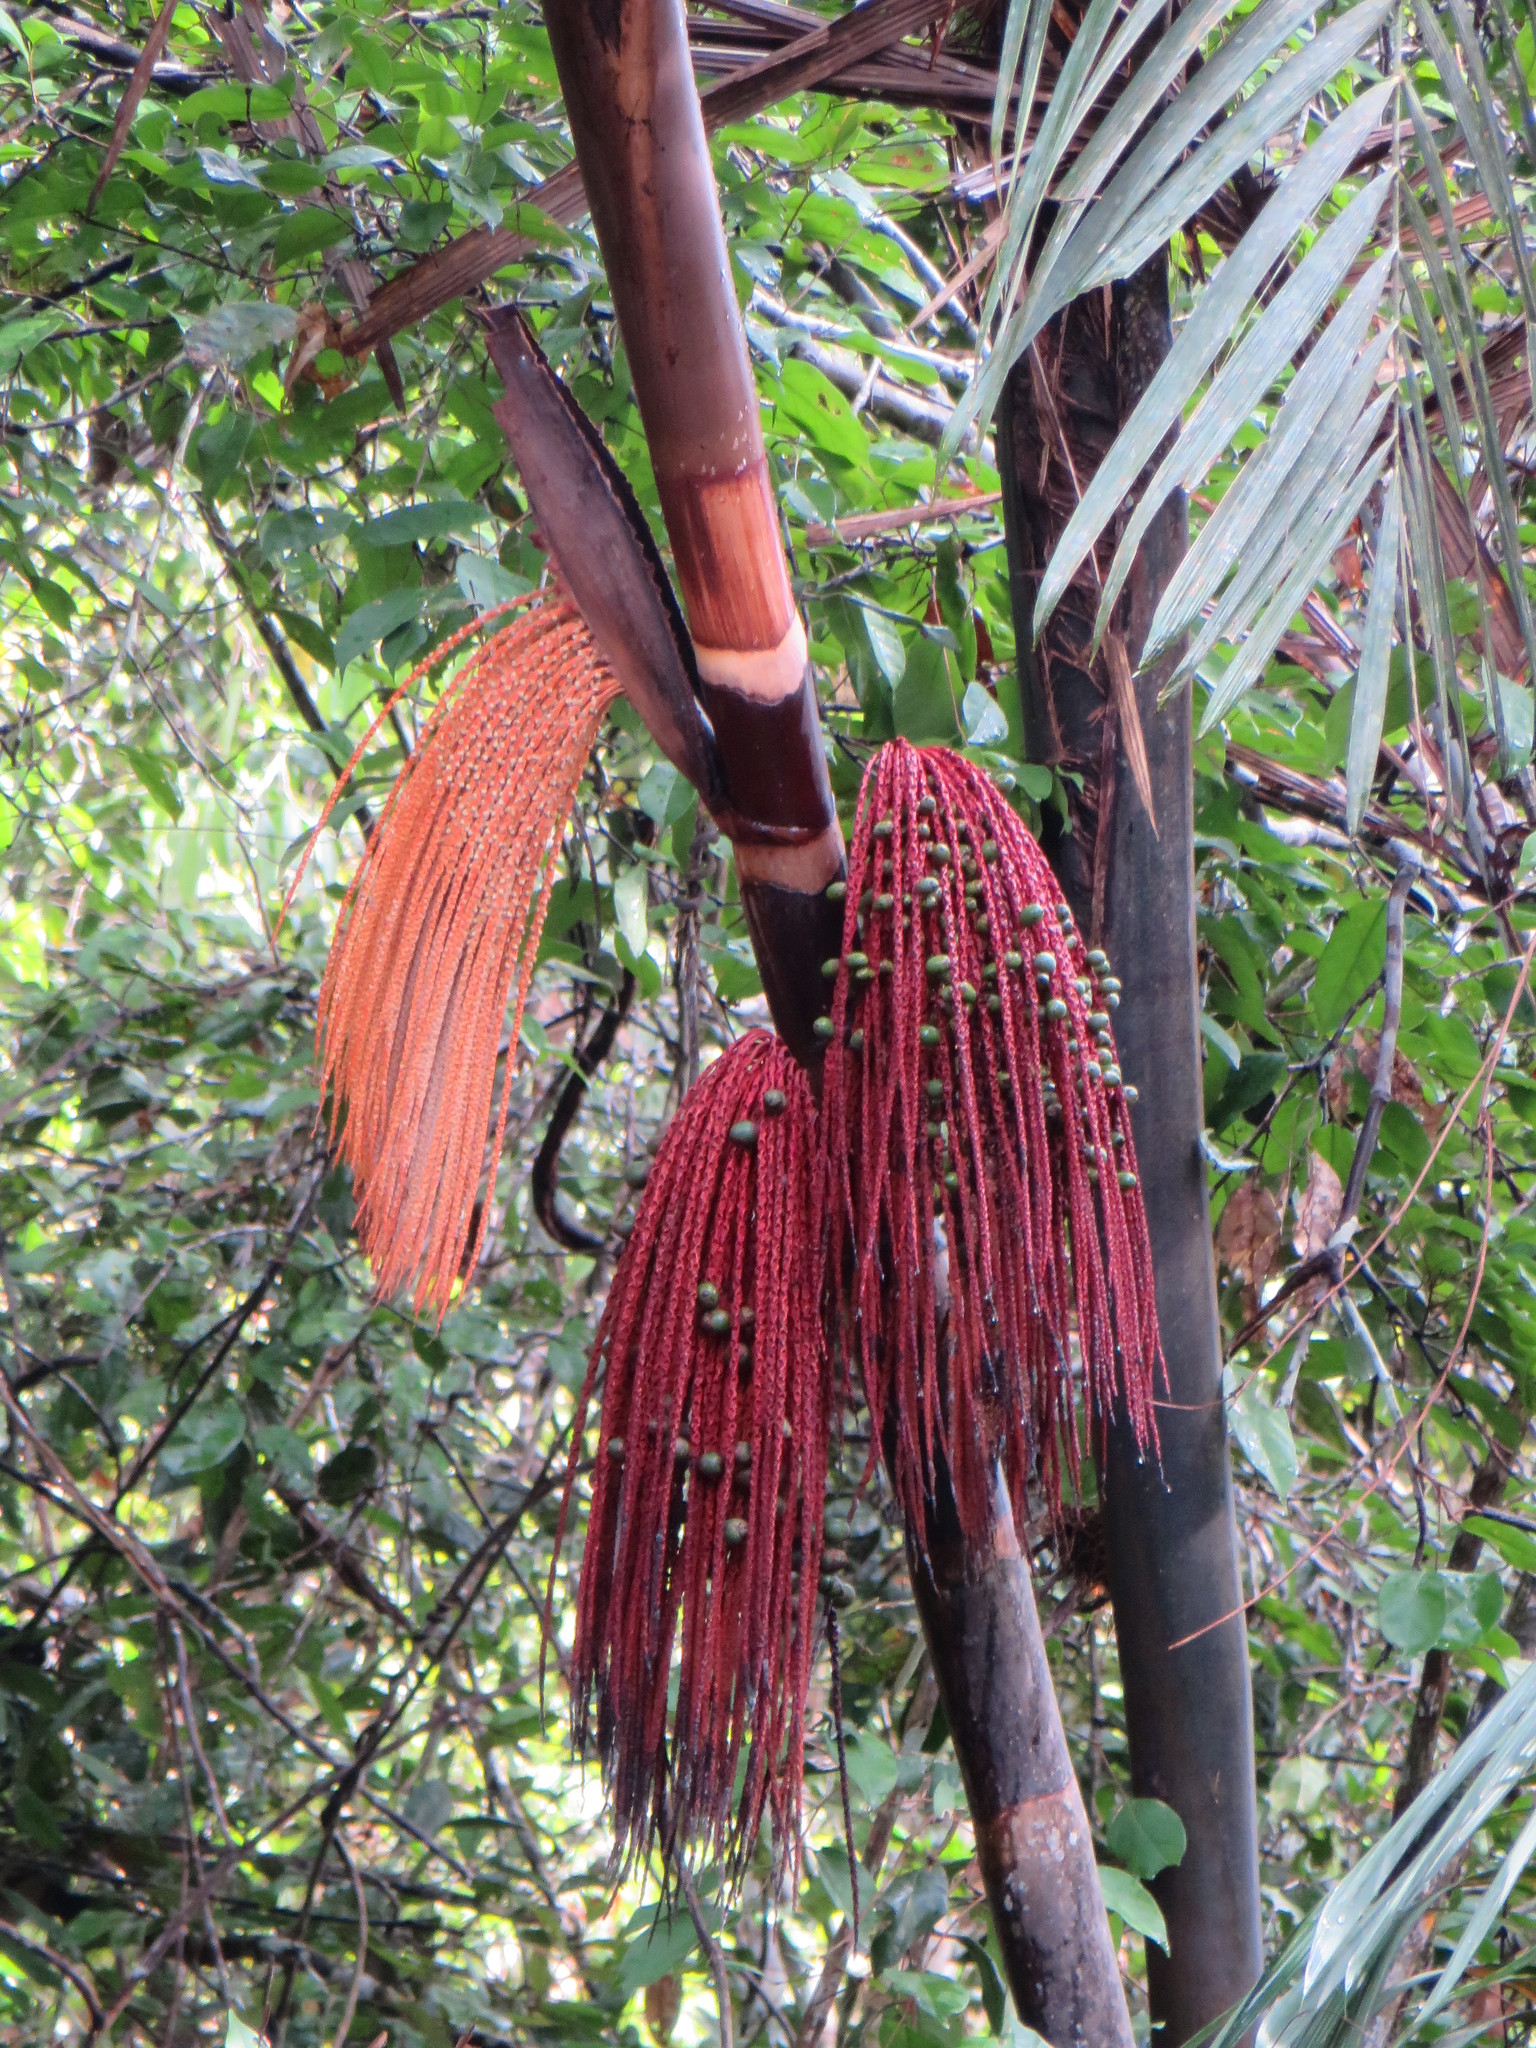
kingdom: Plantae
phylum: Tracheophyta
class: Liliopsida
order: Arecales
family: Arecaceae
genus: Oenocarpus
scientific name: Oenocarpus mapora
